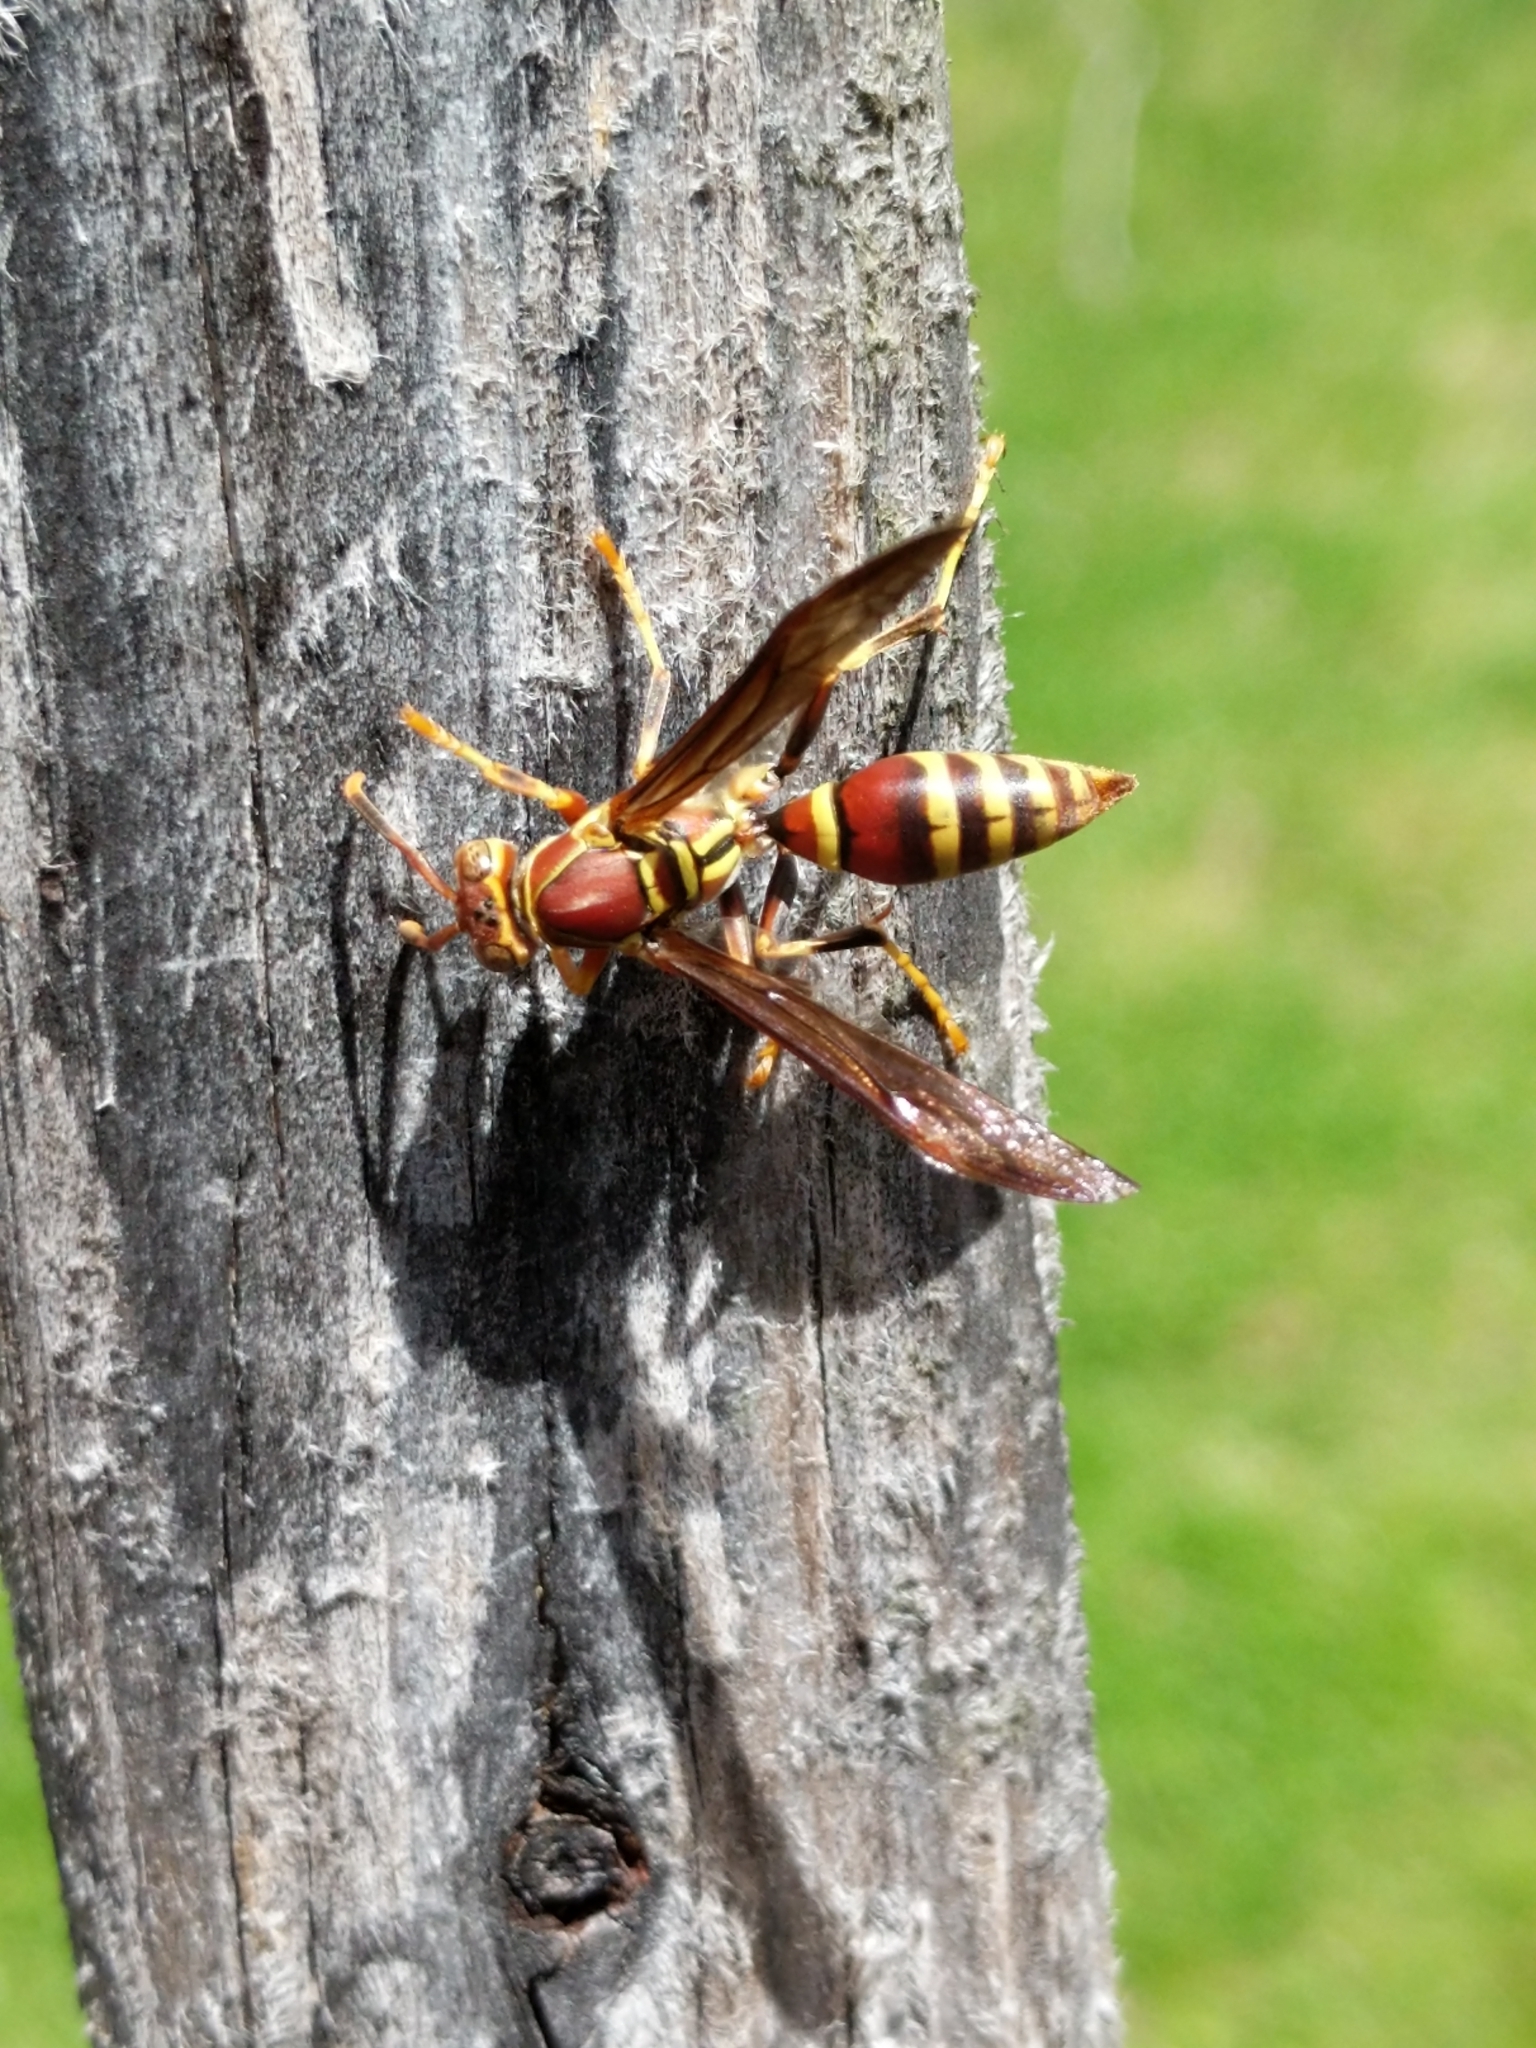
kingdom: Animalia
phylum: Arthropoda
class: Insecta
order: Hymenoptera
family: Eumenidae
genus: Polistes
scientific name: Polistes exclamans
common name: Paper wasp
